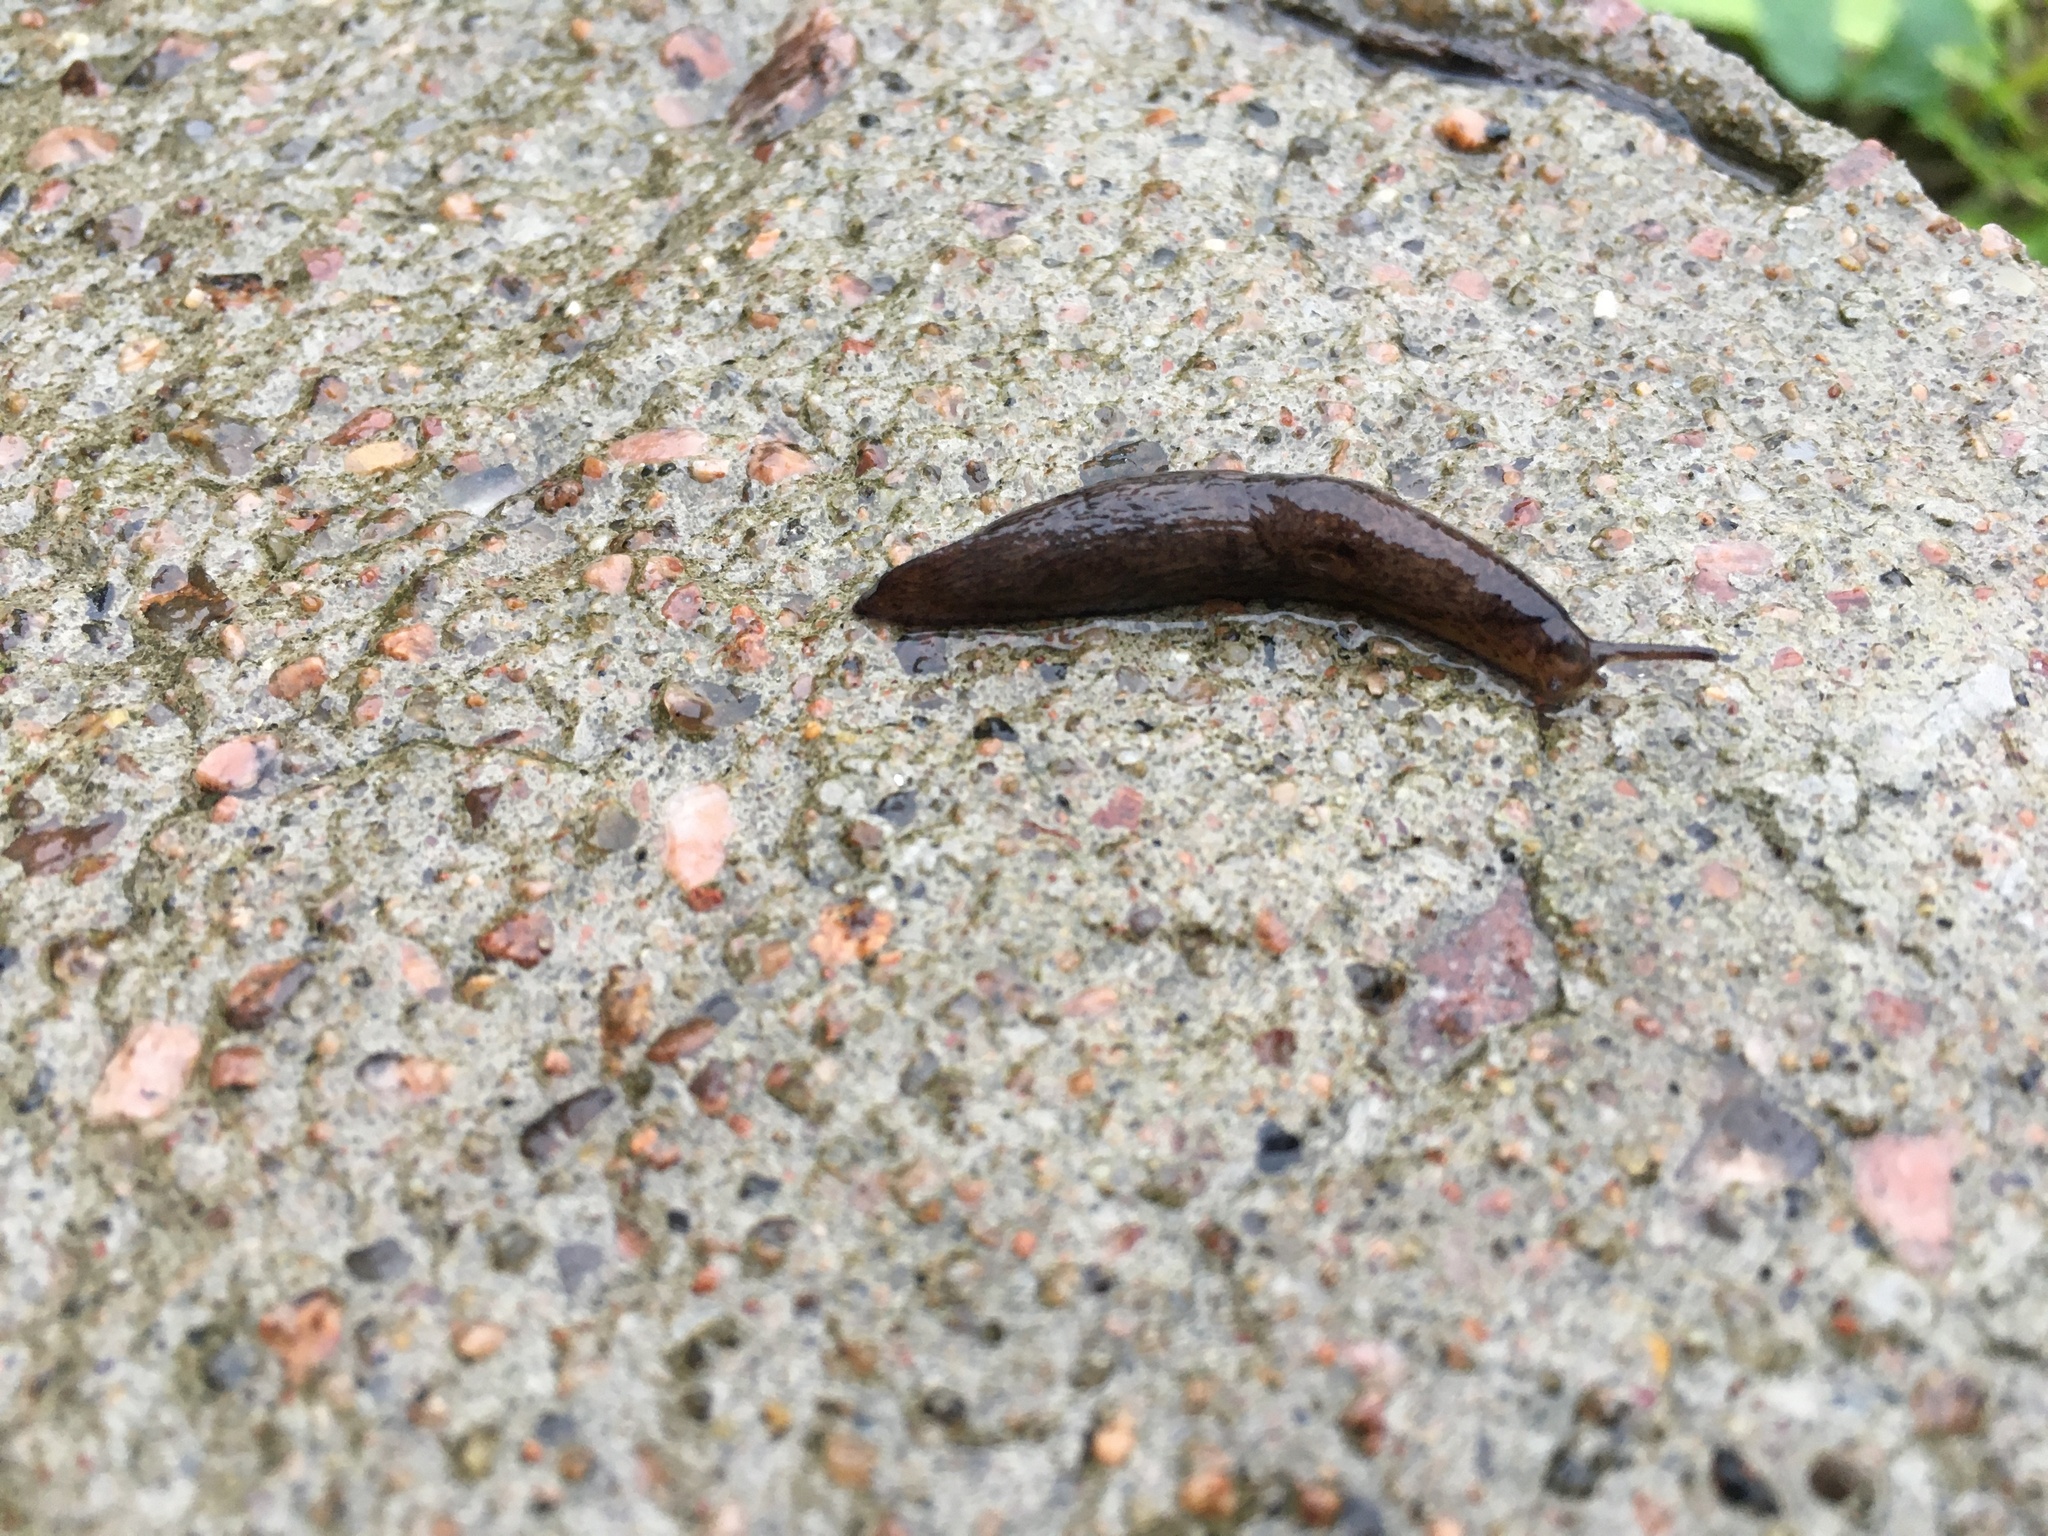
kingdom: Animalia
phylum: Mollusca
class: Gastropoda
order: Stylommatophora
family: Agriolimacidae
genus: Deroceras
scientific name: Deroceras reticulatum
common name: Gray field slug
